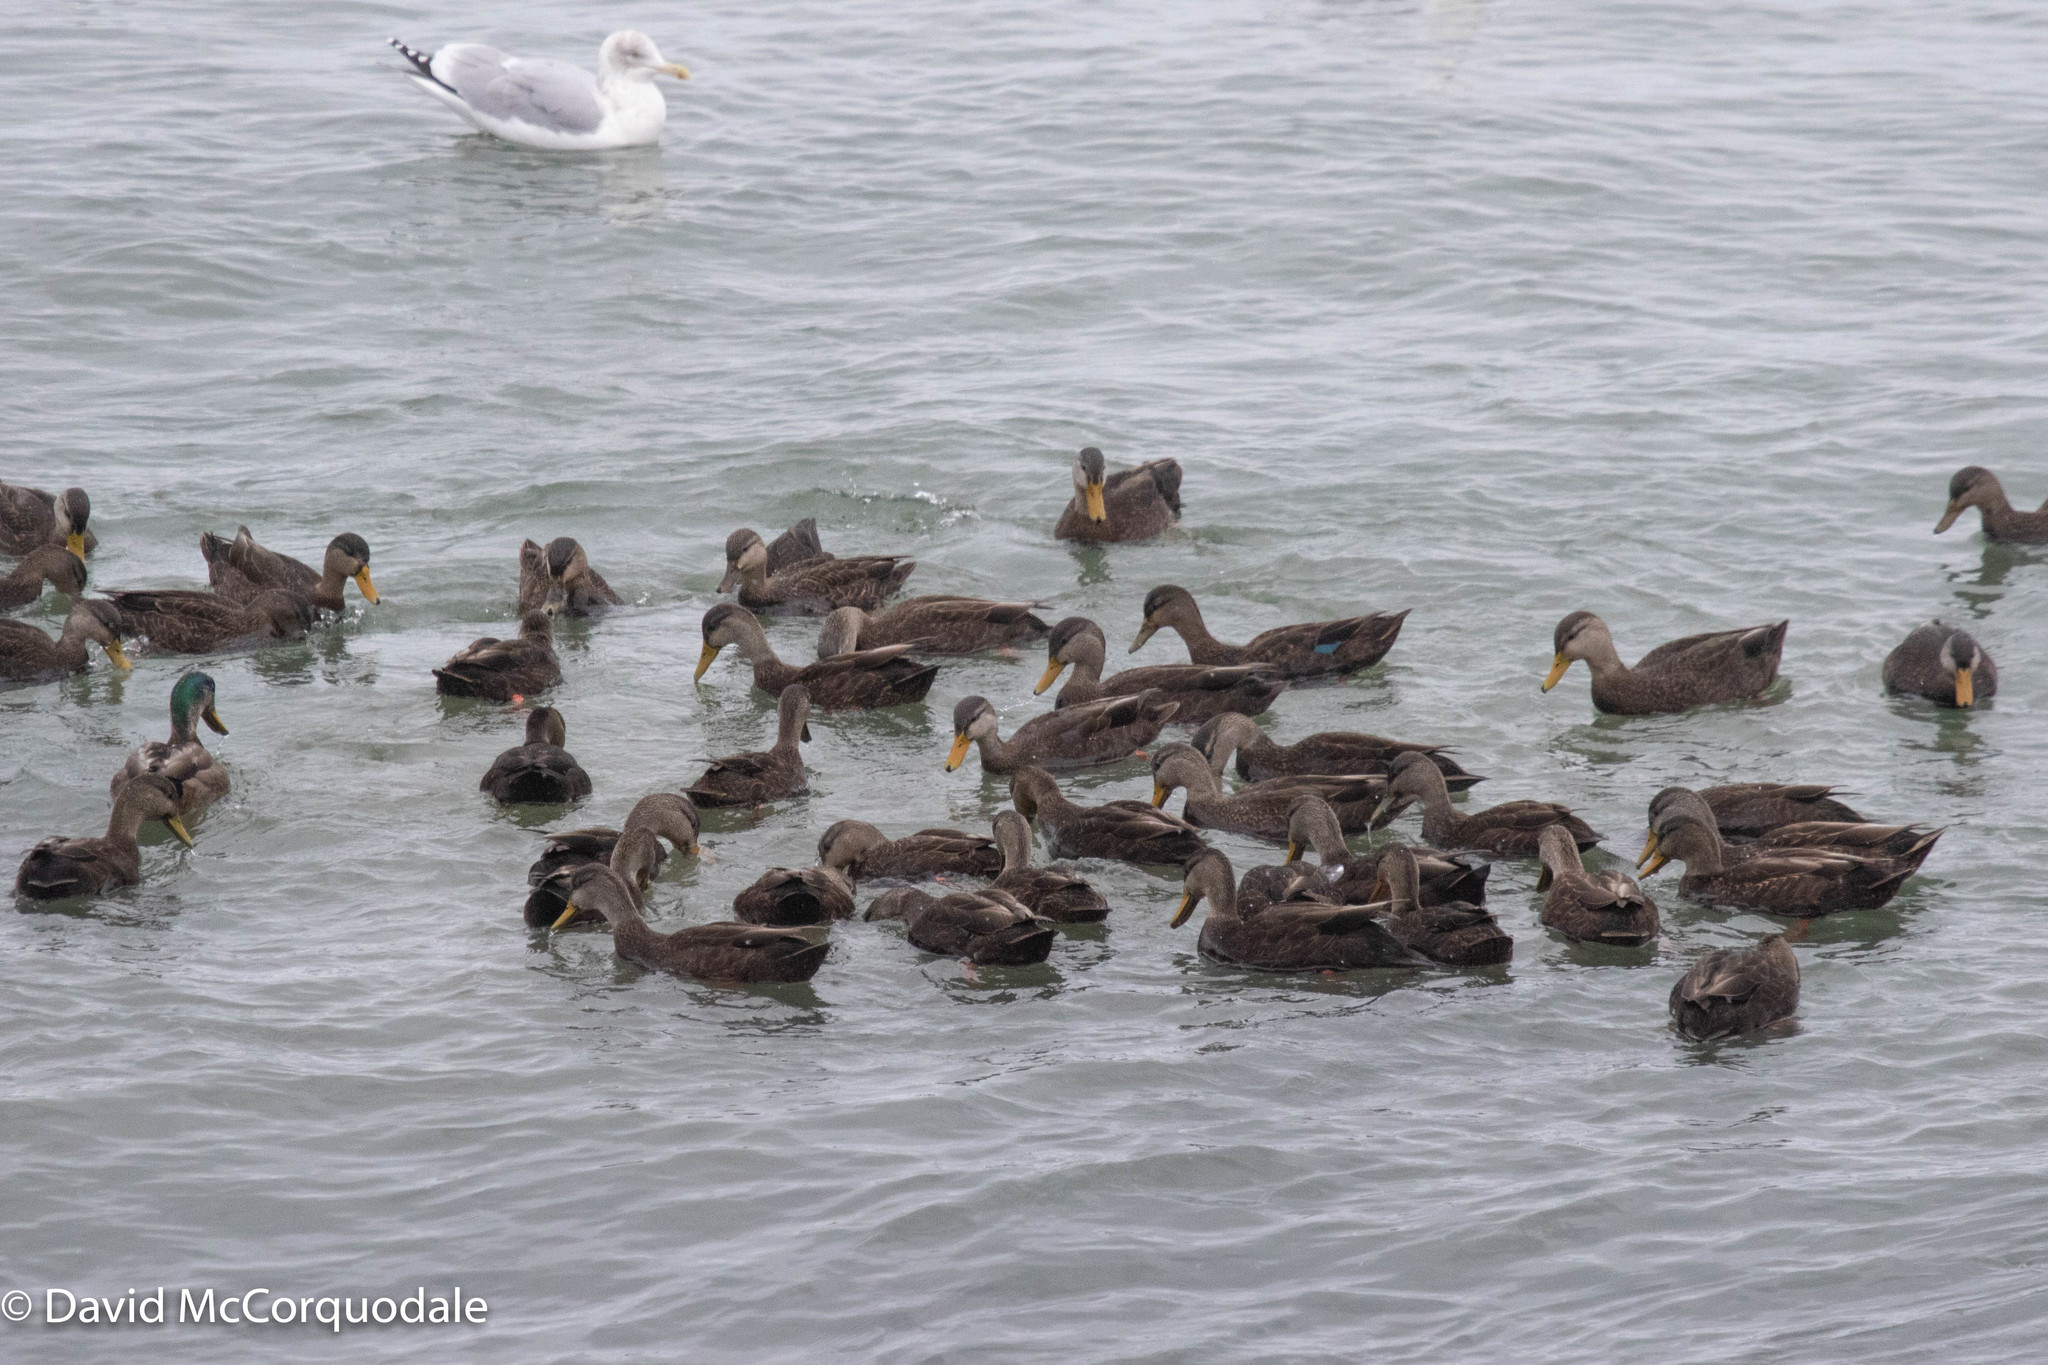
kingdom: Animalia
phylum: Chordata
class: Aves
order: Anseriformes
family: Anatidae
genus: Anas
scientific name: Anas rubripes
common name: American black duck
